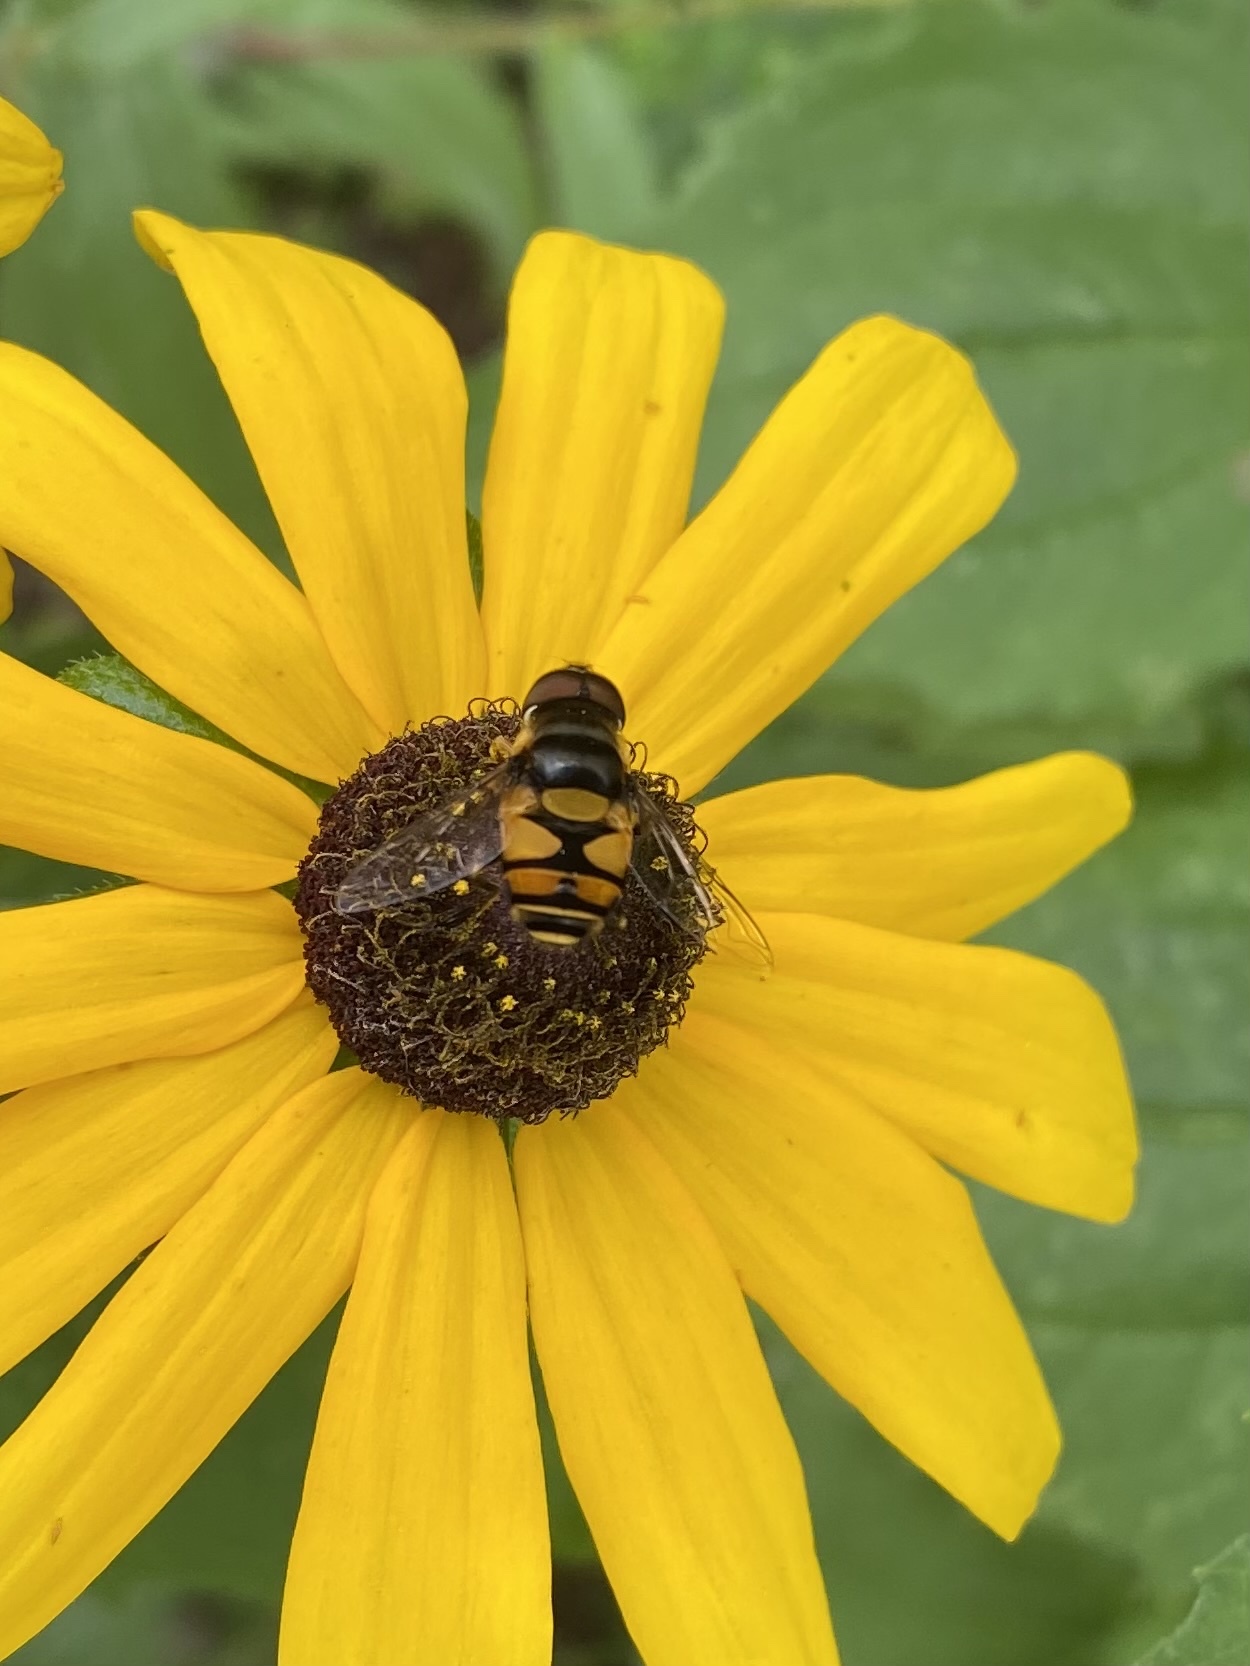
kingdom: Animalia
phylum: Arthropoda
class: Insecta
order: Diptera
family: Syrphidae
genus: Eristalis
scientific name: Eristalis transversa
